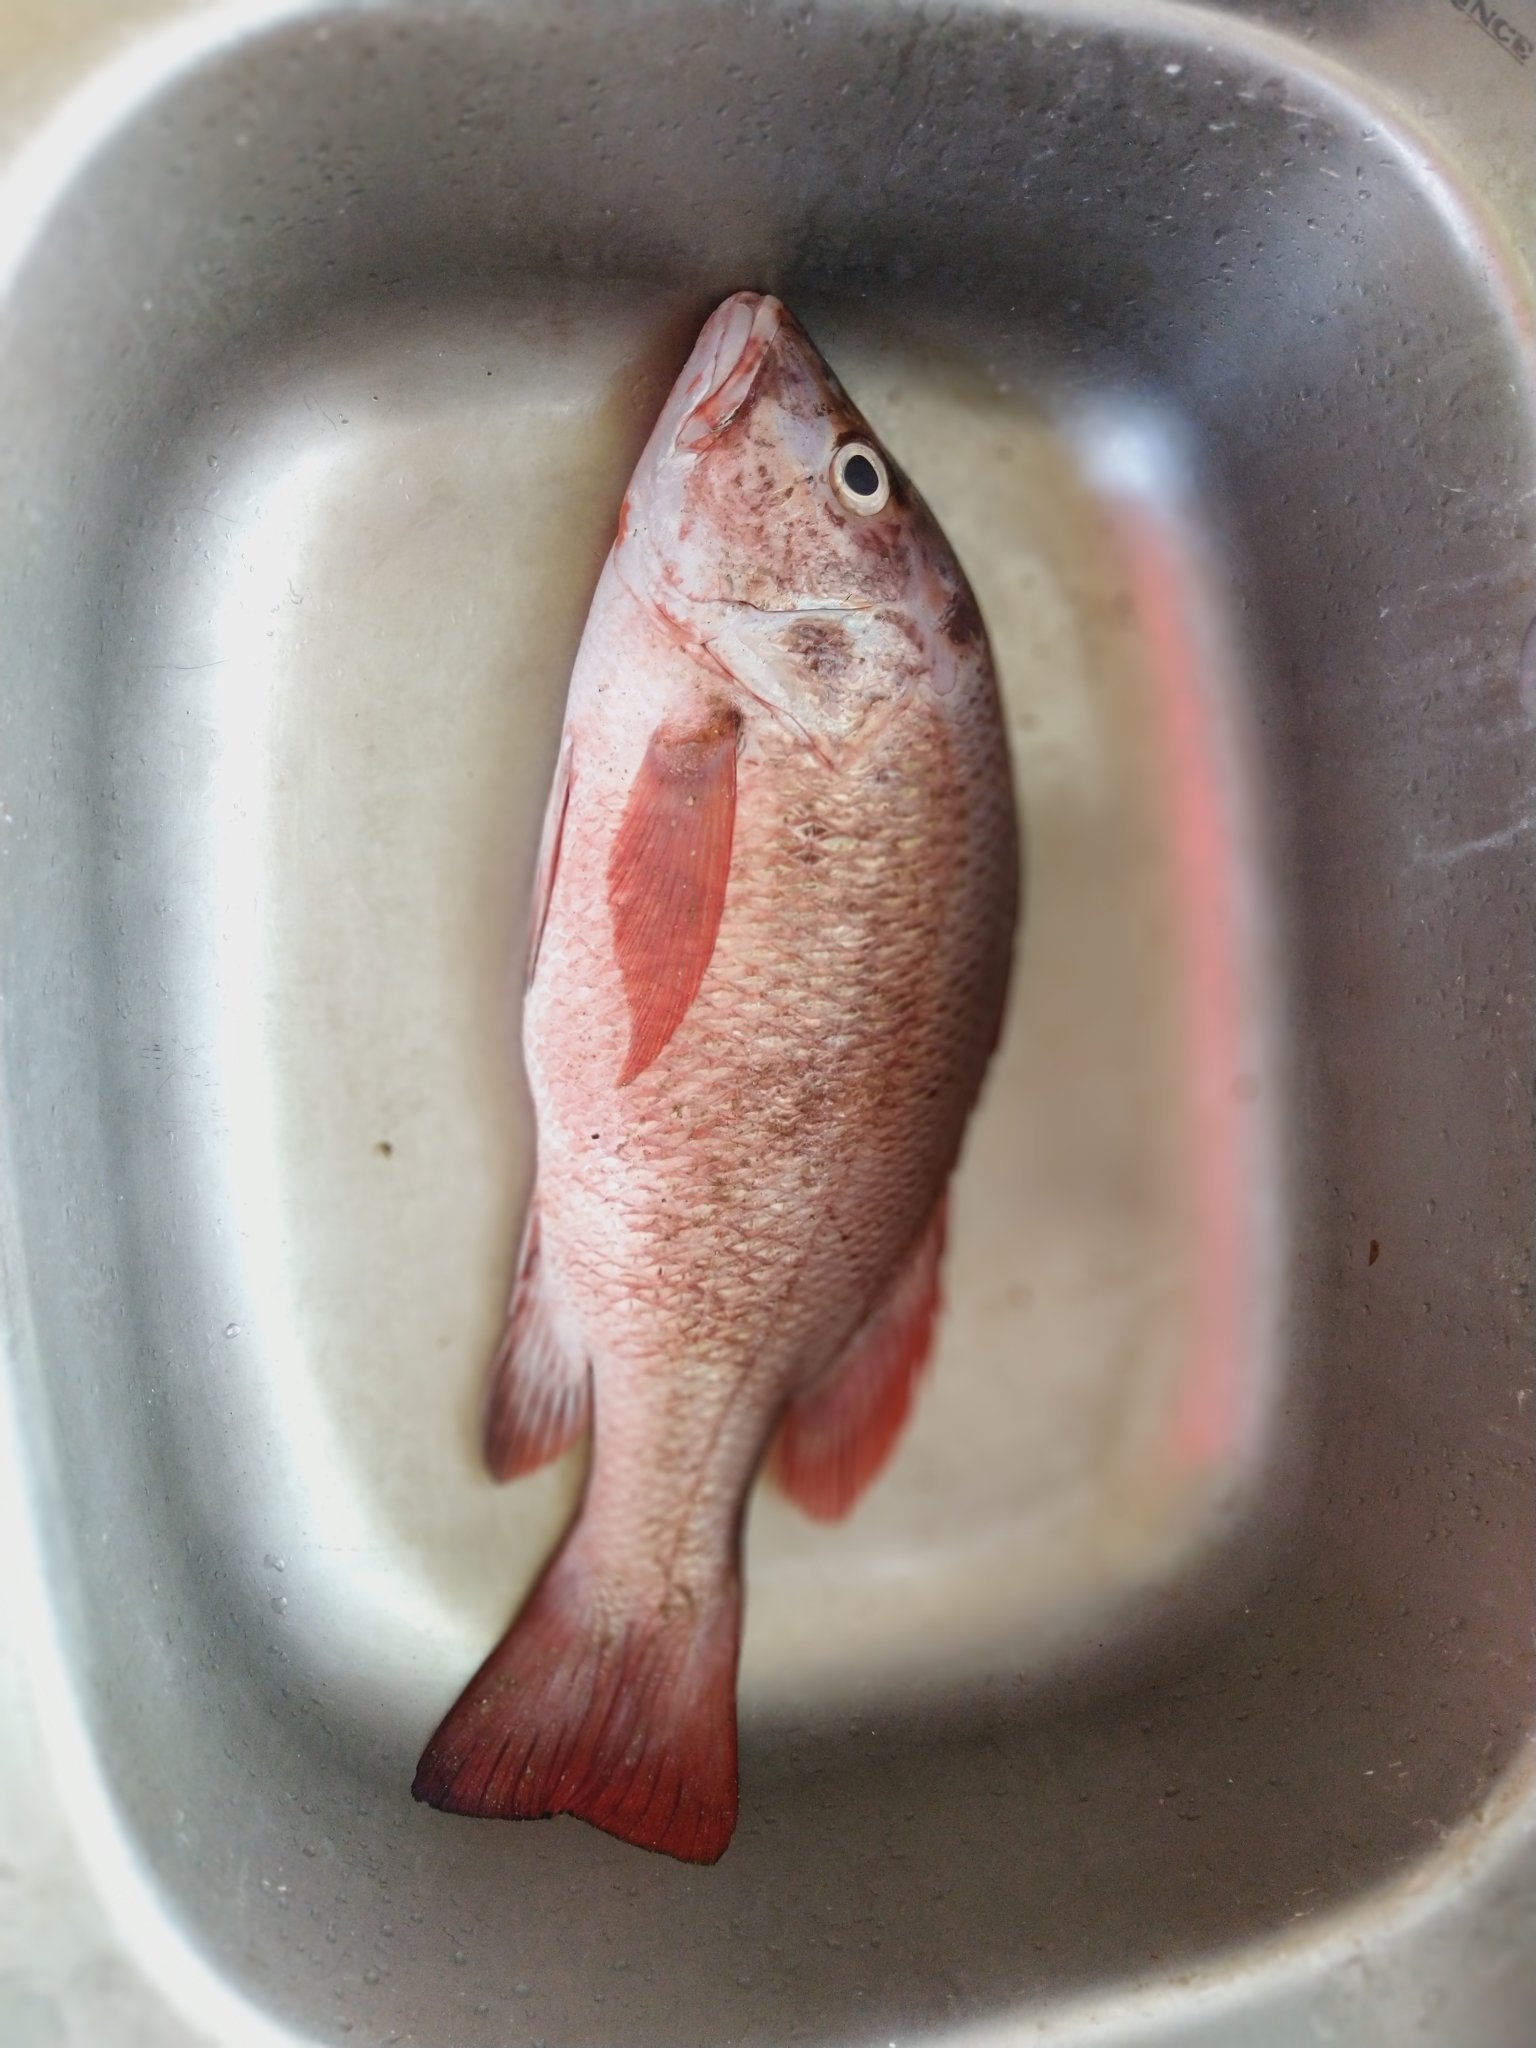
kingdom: Animalia
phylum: Chordata
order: Perciformes
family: Lutjanidae
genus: Lutjanus
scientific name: Lutjanus argentimaculatus
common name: Mangrove red snapper
